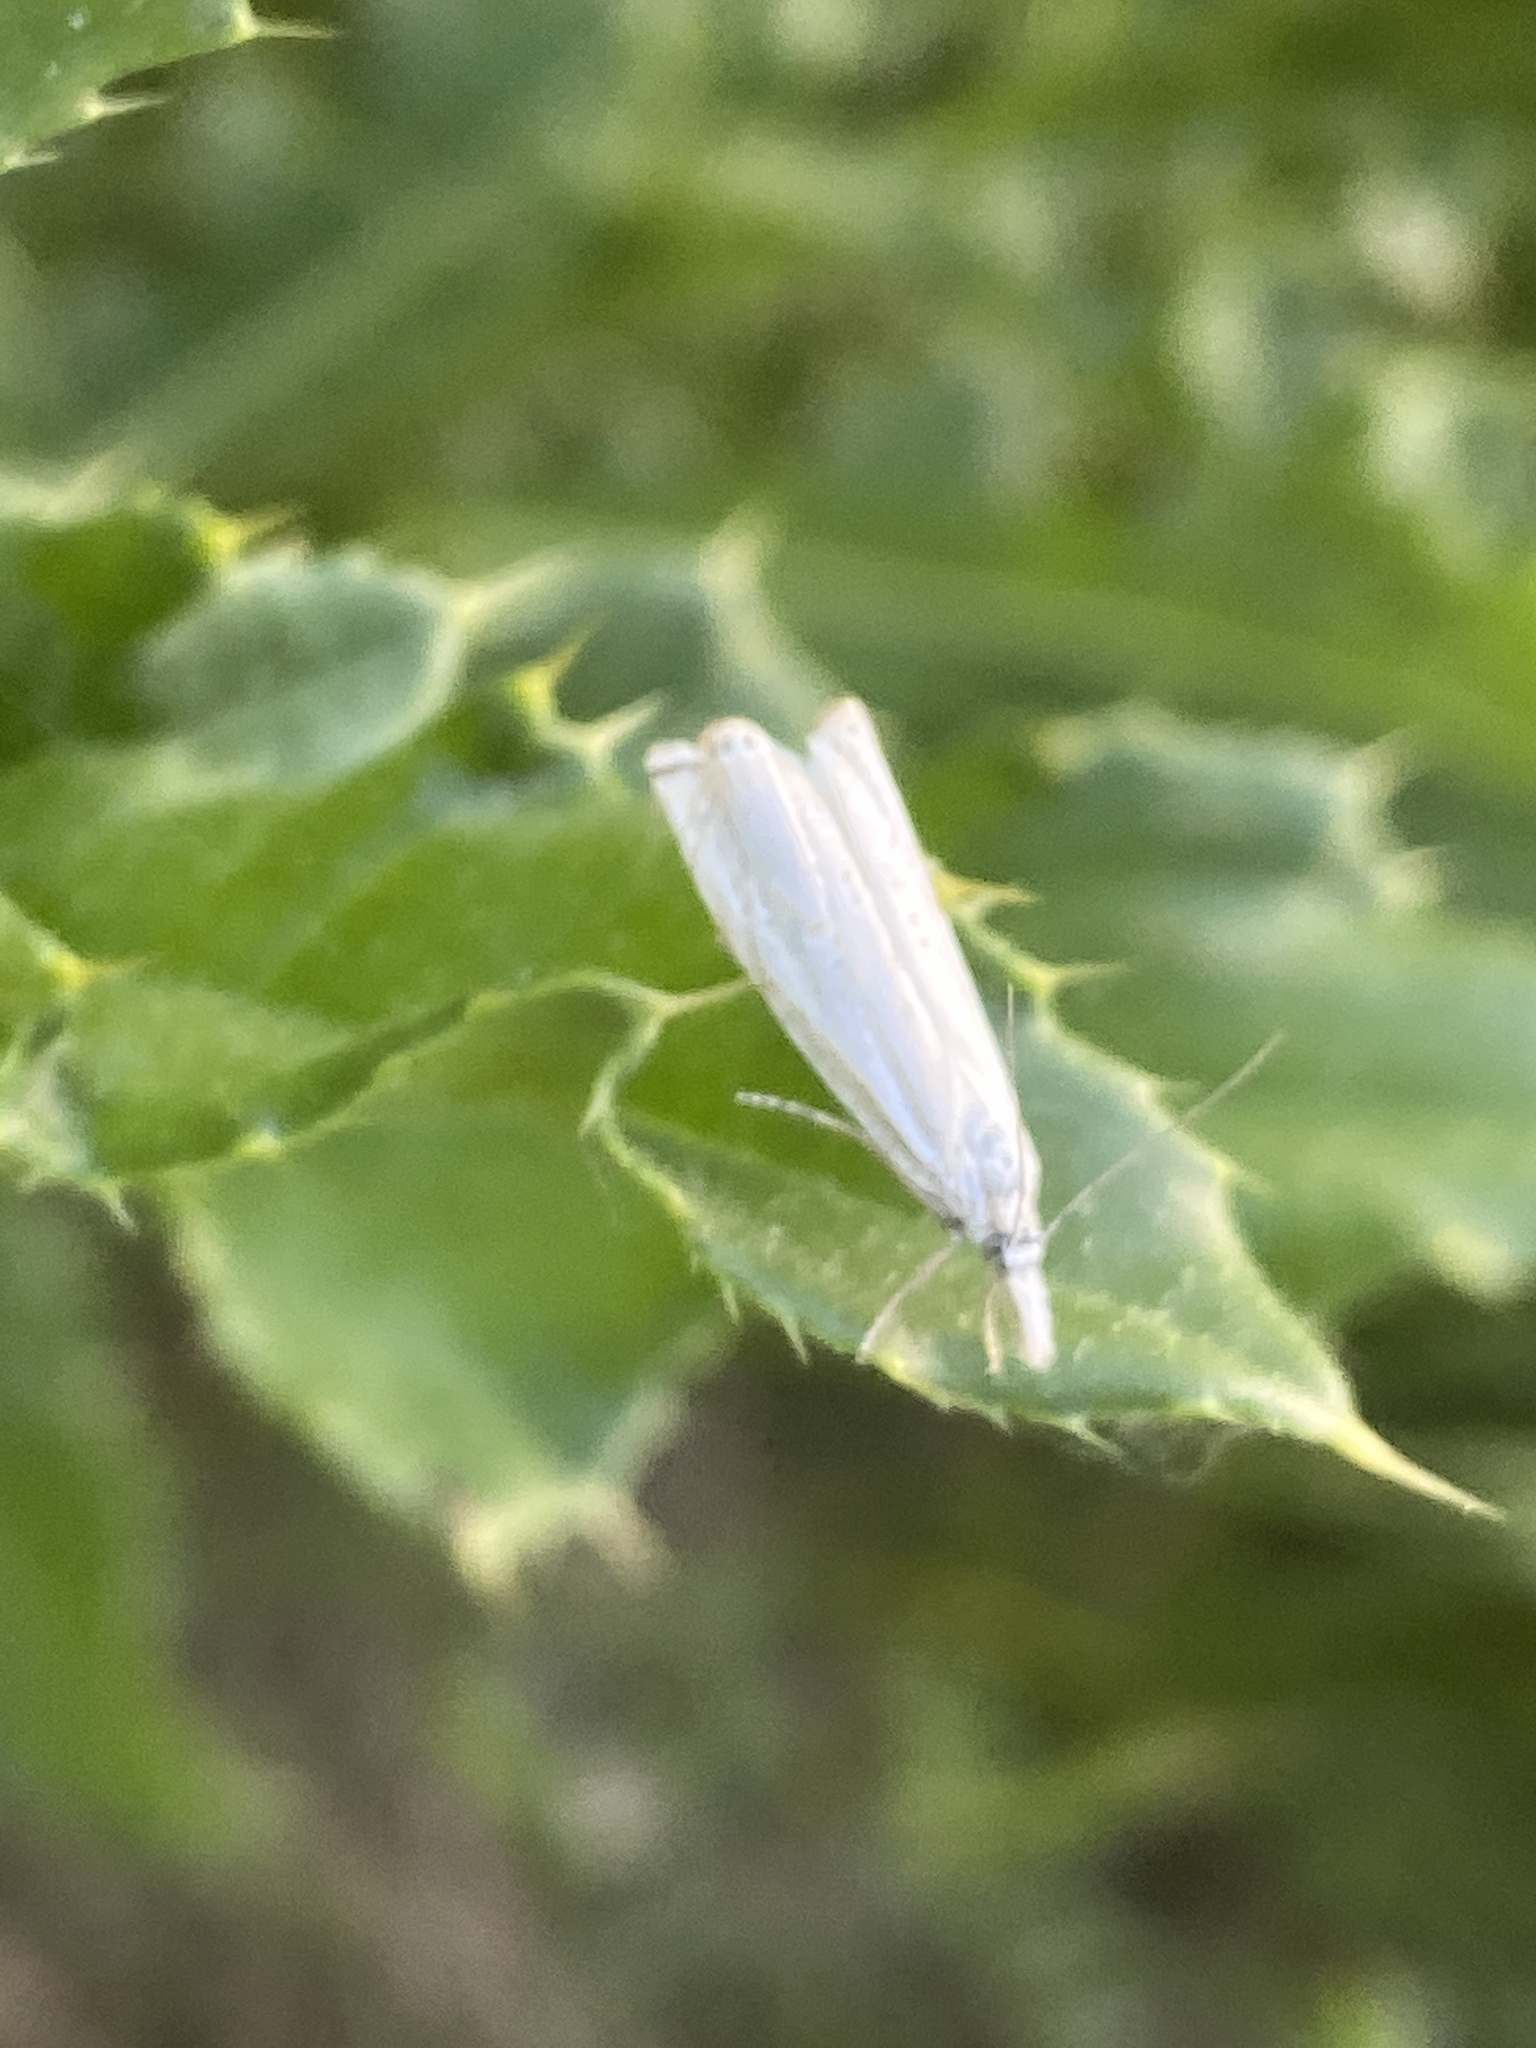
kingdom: Animalia
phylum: Arthropoda
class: Insecta
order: Lepidoptera
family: Crambidae
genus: Crambus
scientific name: Crambus nemorella
